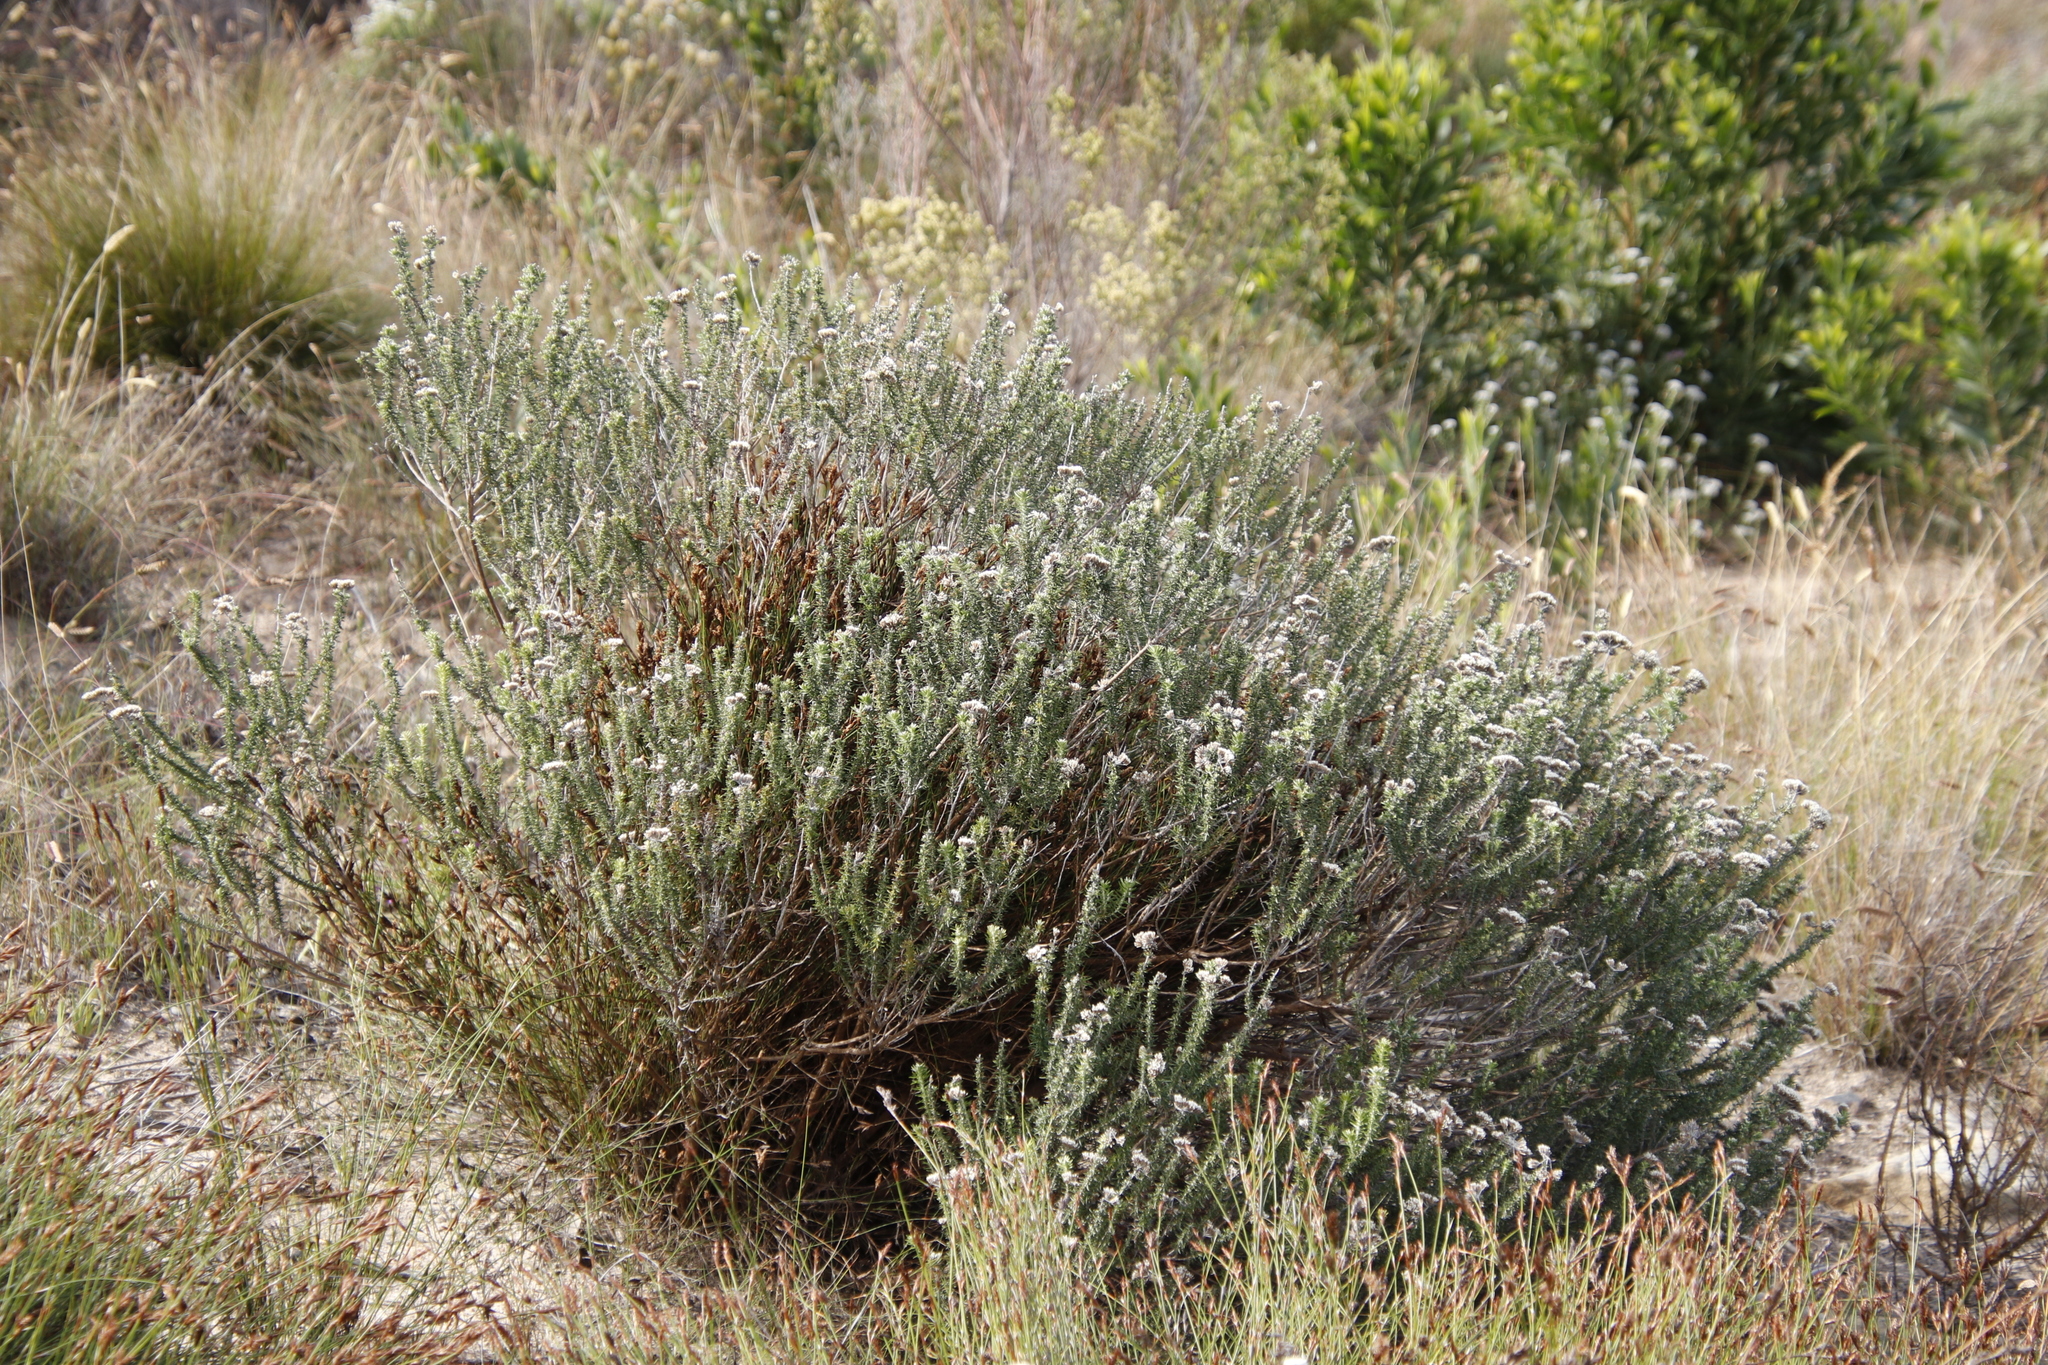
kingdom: Plantae
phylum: Tracheophyta
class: Magnoliopsida
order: Asterales
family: Asteraceae
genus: Metalasia
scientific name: Metalasia densa
